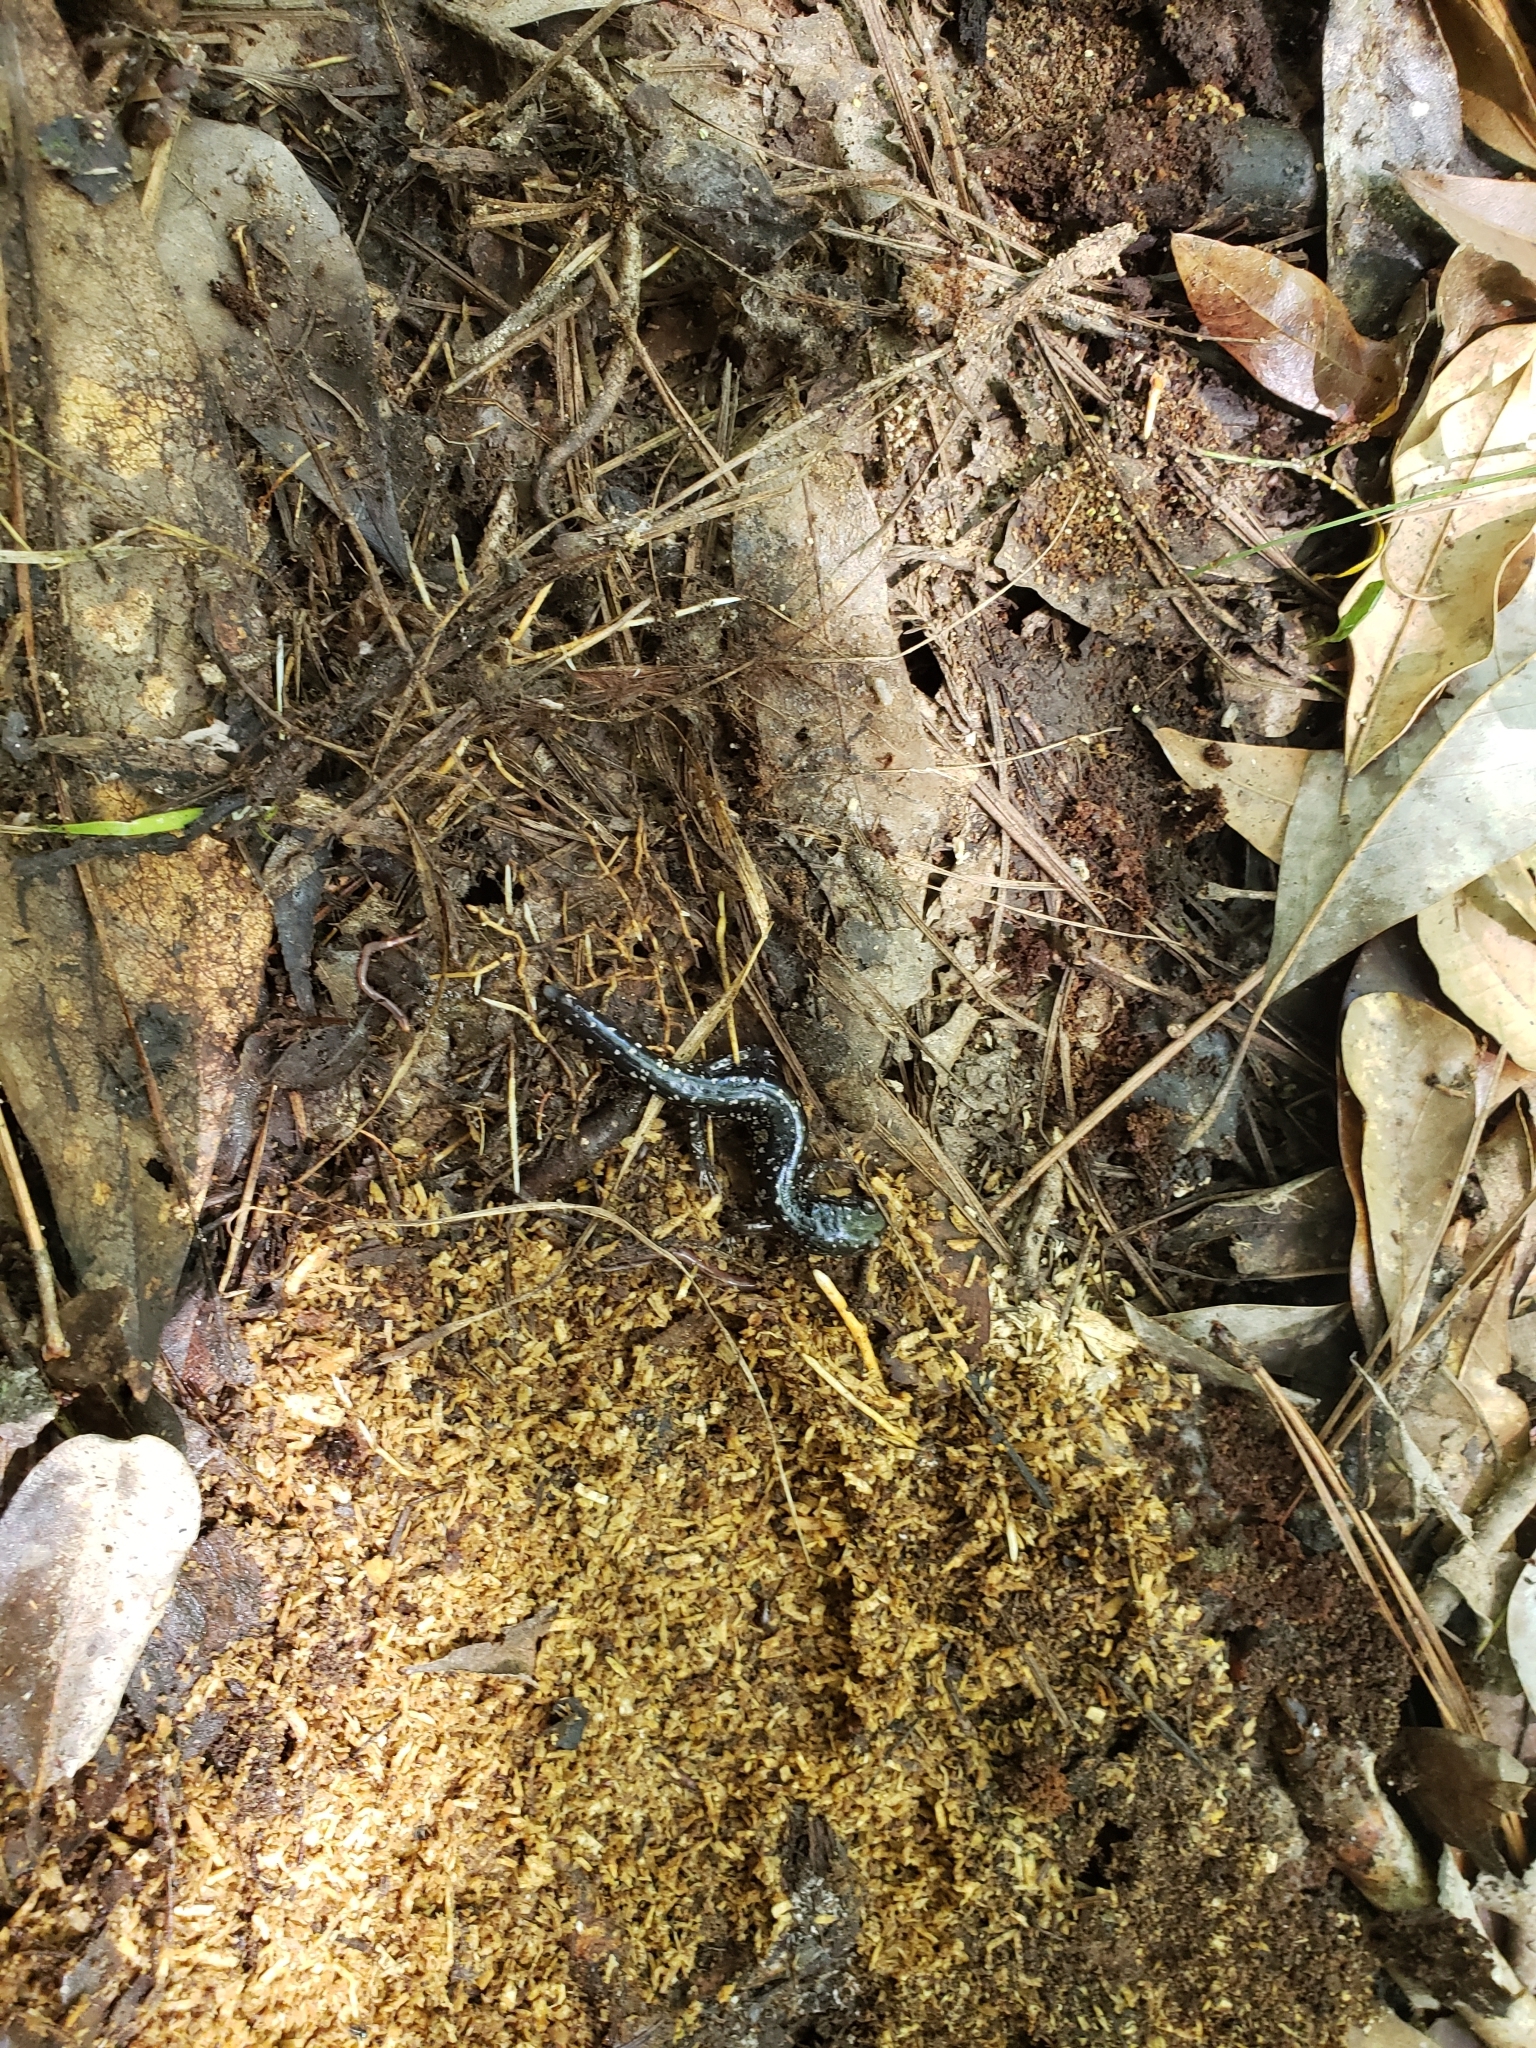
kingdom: Animalia
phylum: Chordata
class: Amphibia
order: Caudata
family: Plethodontidae
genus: Plethodon
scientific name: Plethodon mississippi
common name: Mississippi slimy salamander
